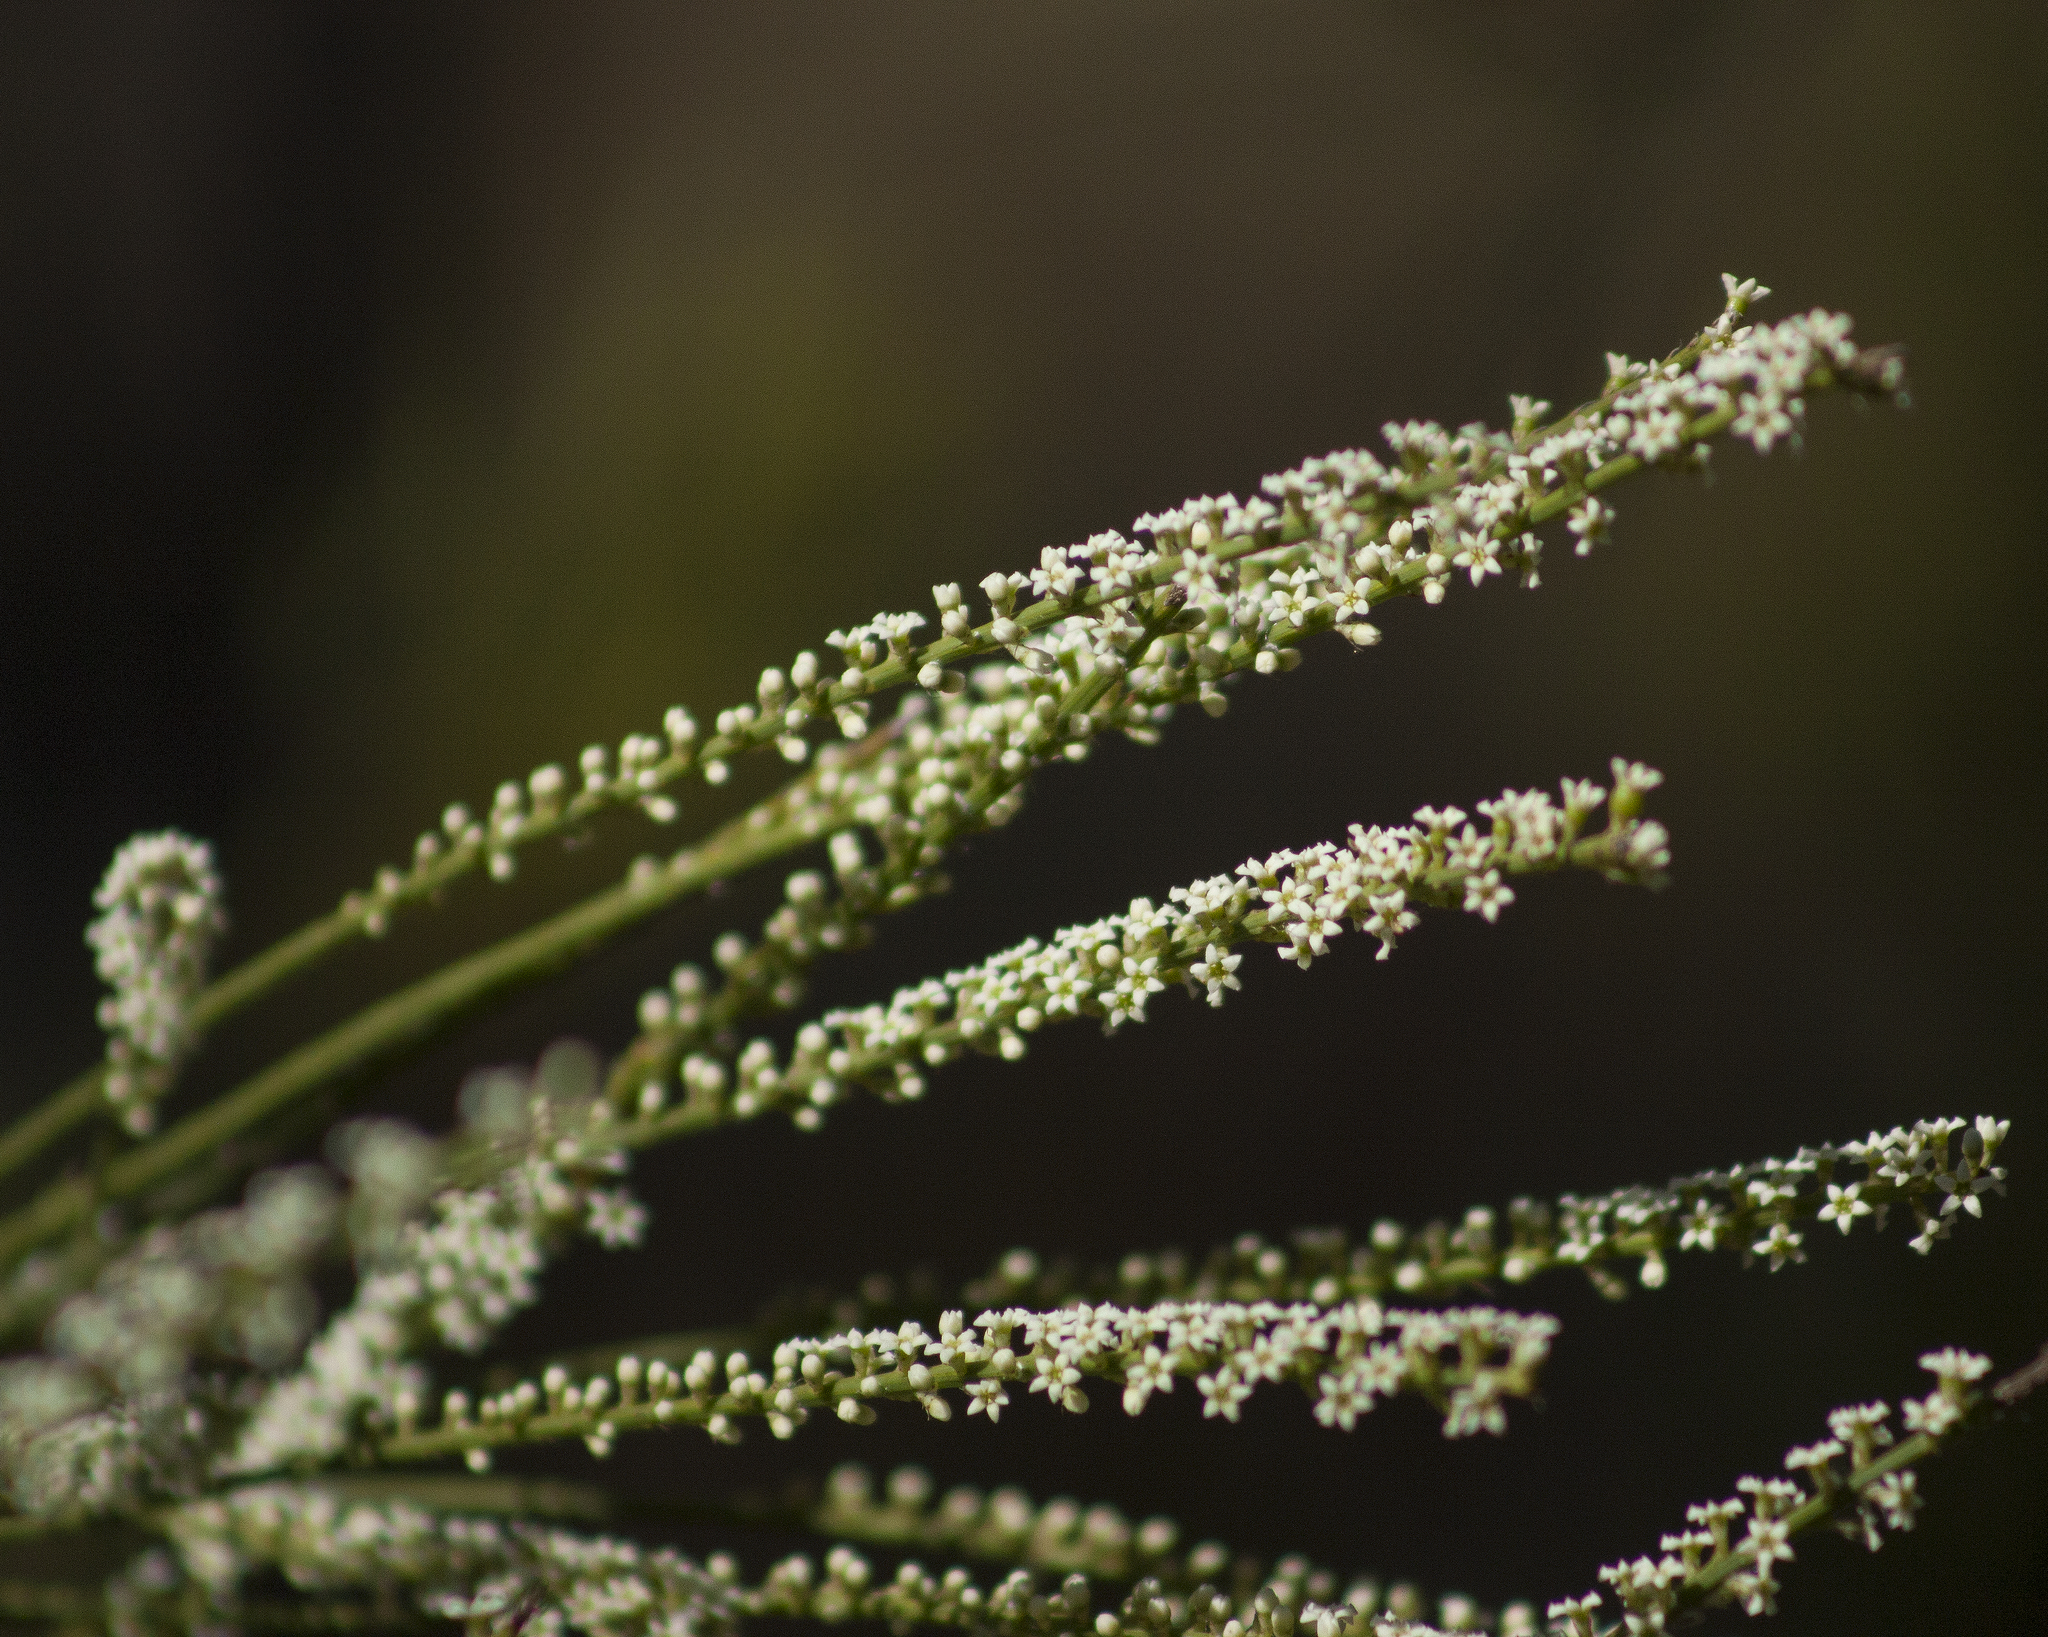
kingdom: Plantae
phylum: Tracheophyta
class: Magnoliopsida
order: Santalales
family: Amphorogynaceae
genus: Choretrum
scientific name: Choretrum candollei
